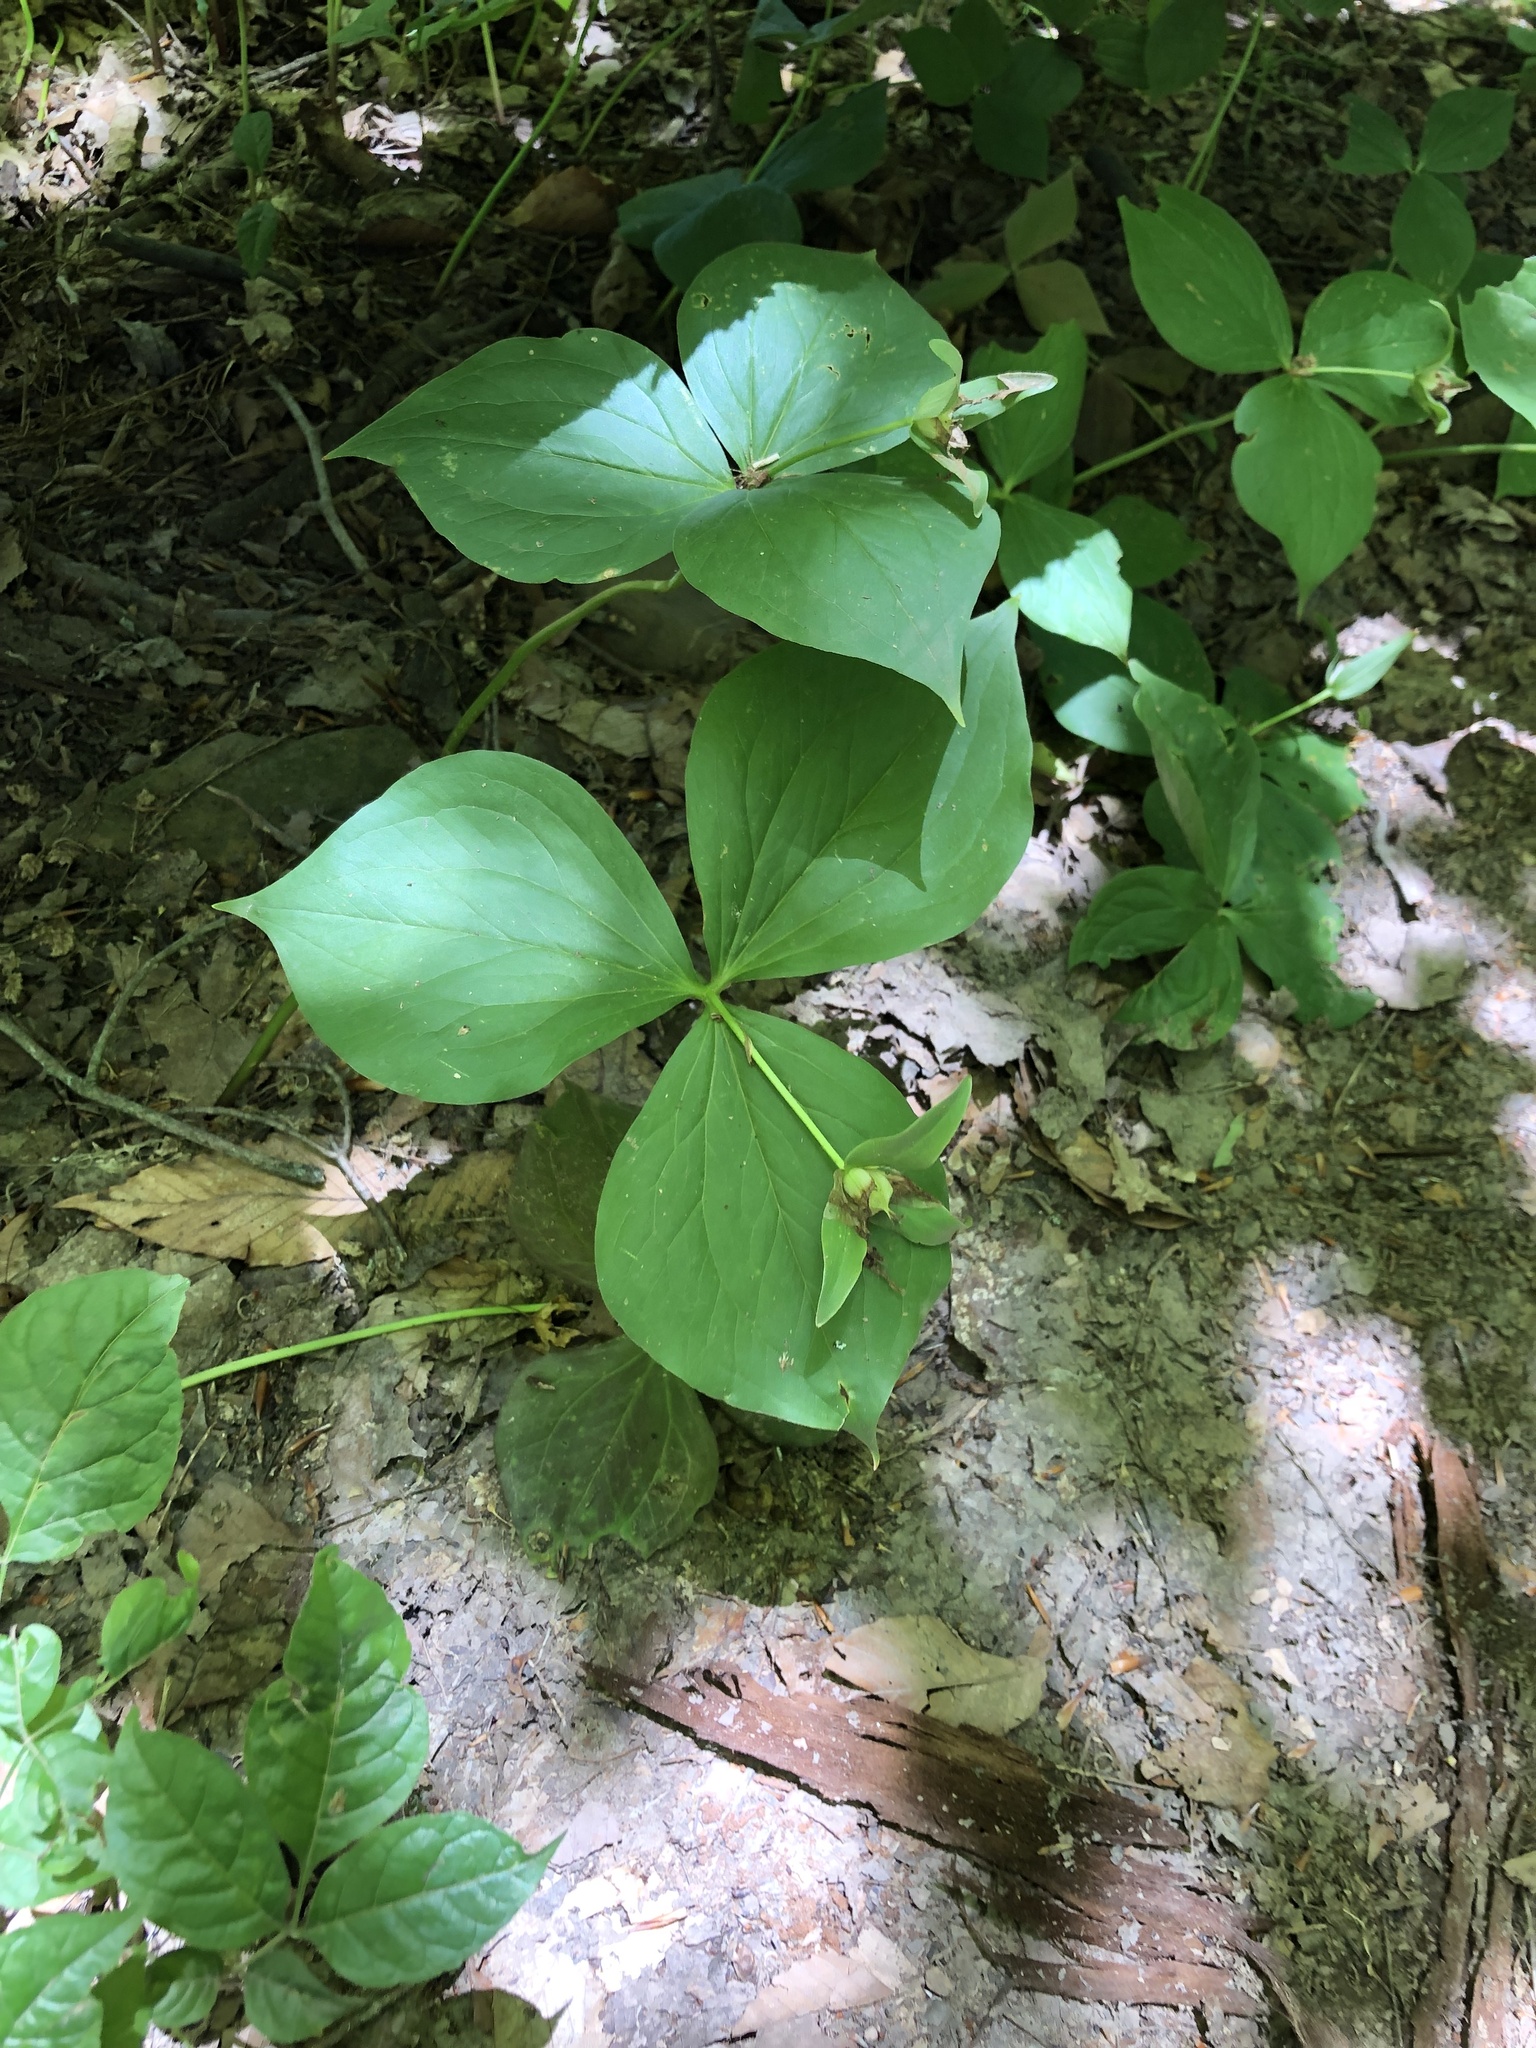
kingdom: Plantae
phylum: Tracheophyta
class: Liliopsida
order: Liliales
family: Melanthiaceae
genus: Trillium
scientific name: Trillium grandiflorum
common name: Great white trillium
